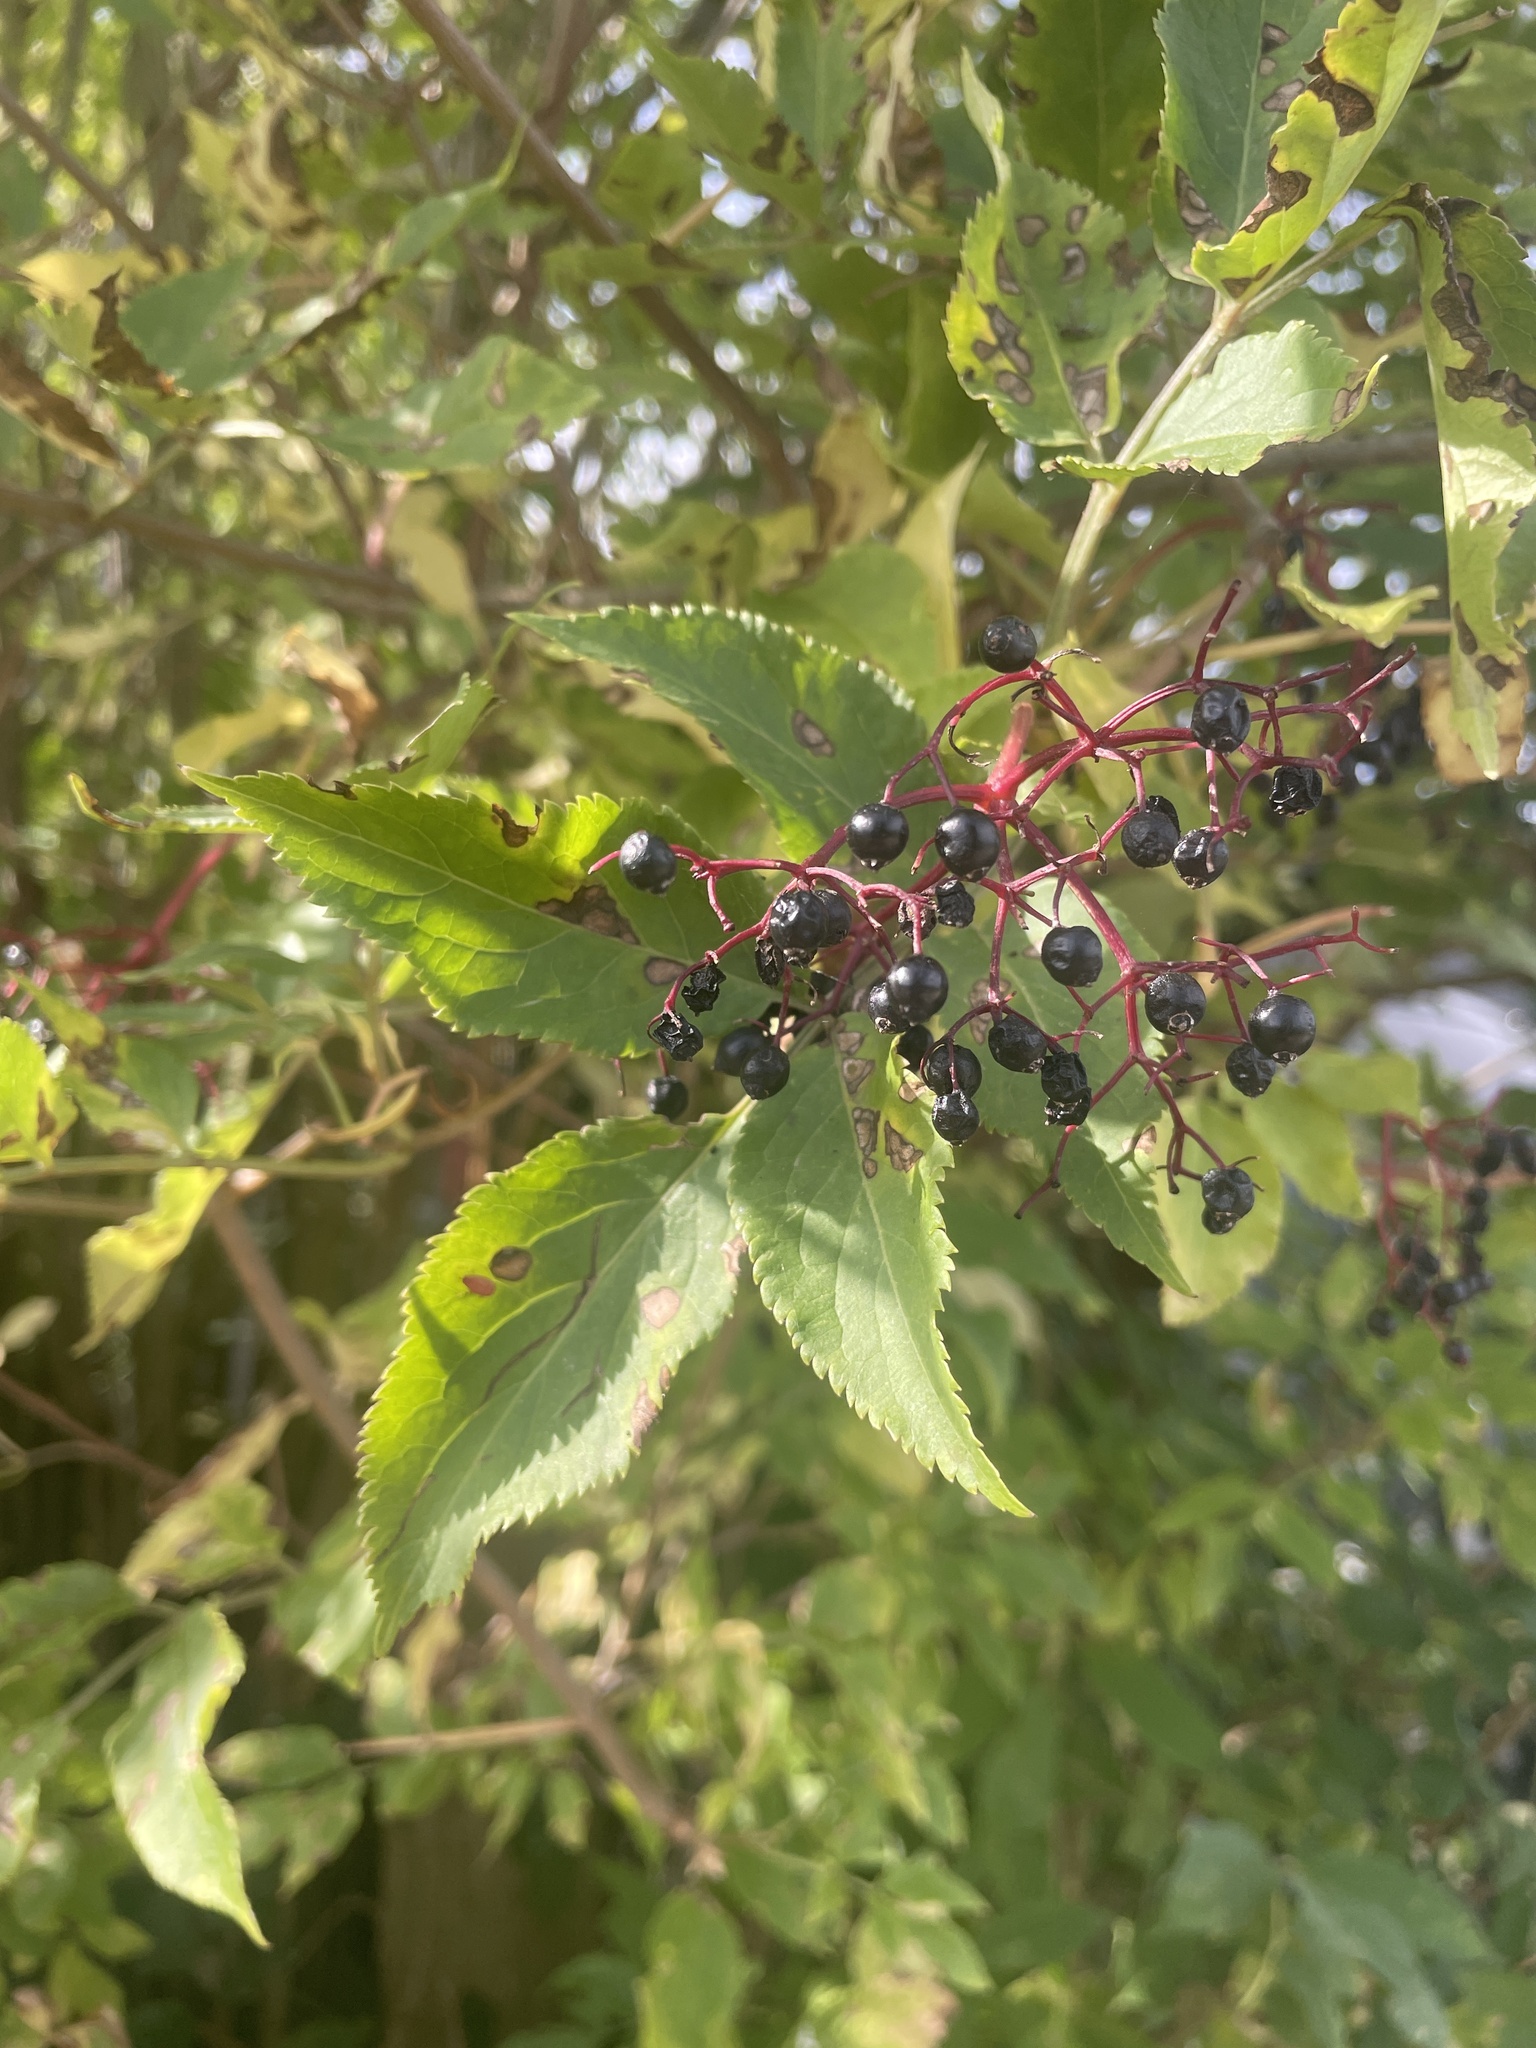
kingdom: Plantae
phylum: Tracheophyta
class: Magnoliopsida
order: Dipsacales
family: Viburnaceae
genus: Sambucus
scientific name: Sambucus nigra
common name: Elder
